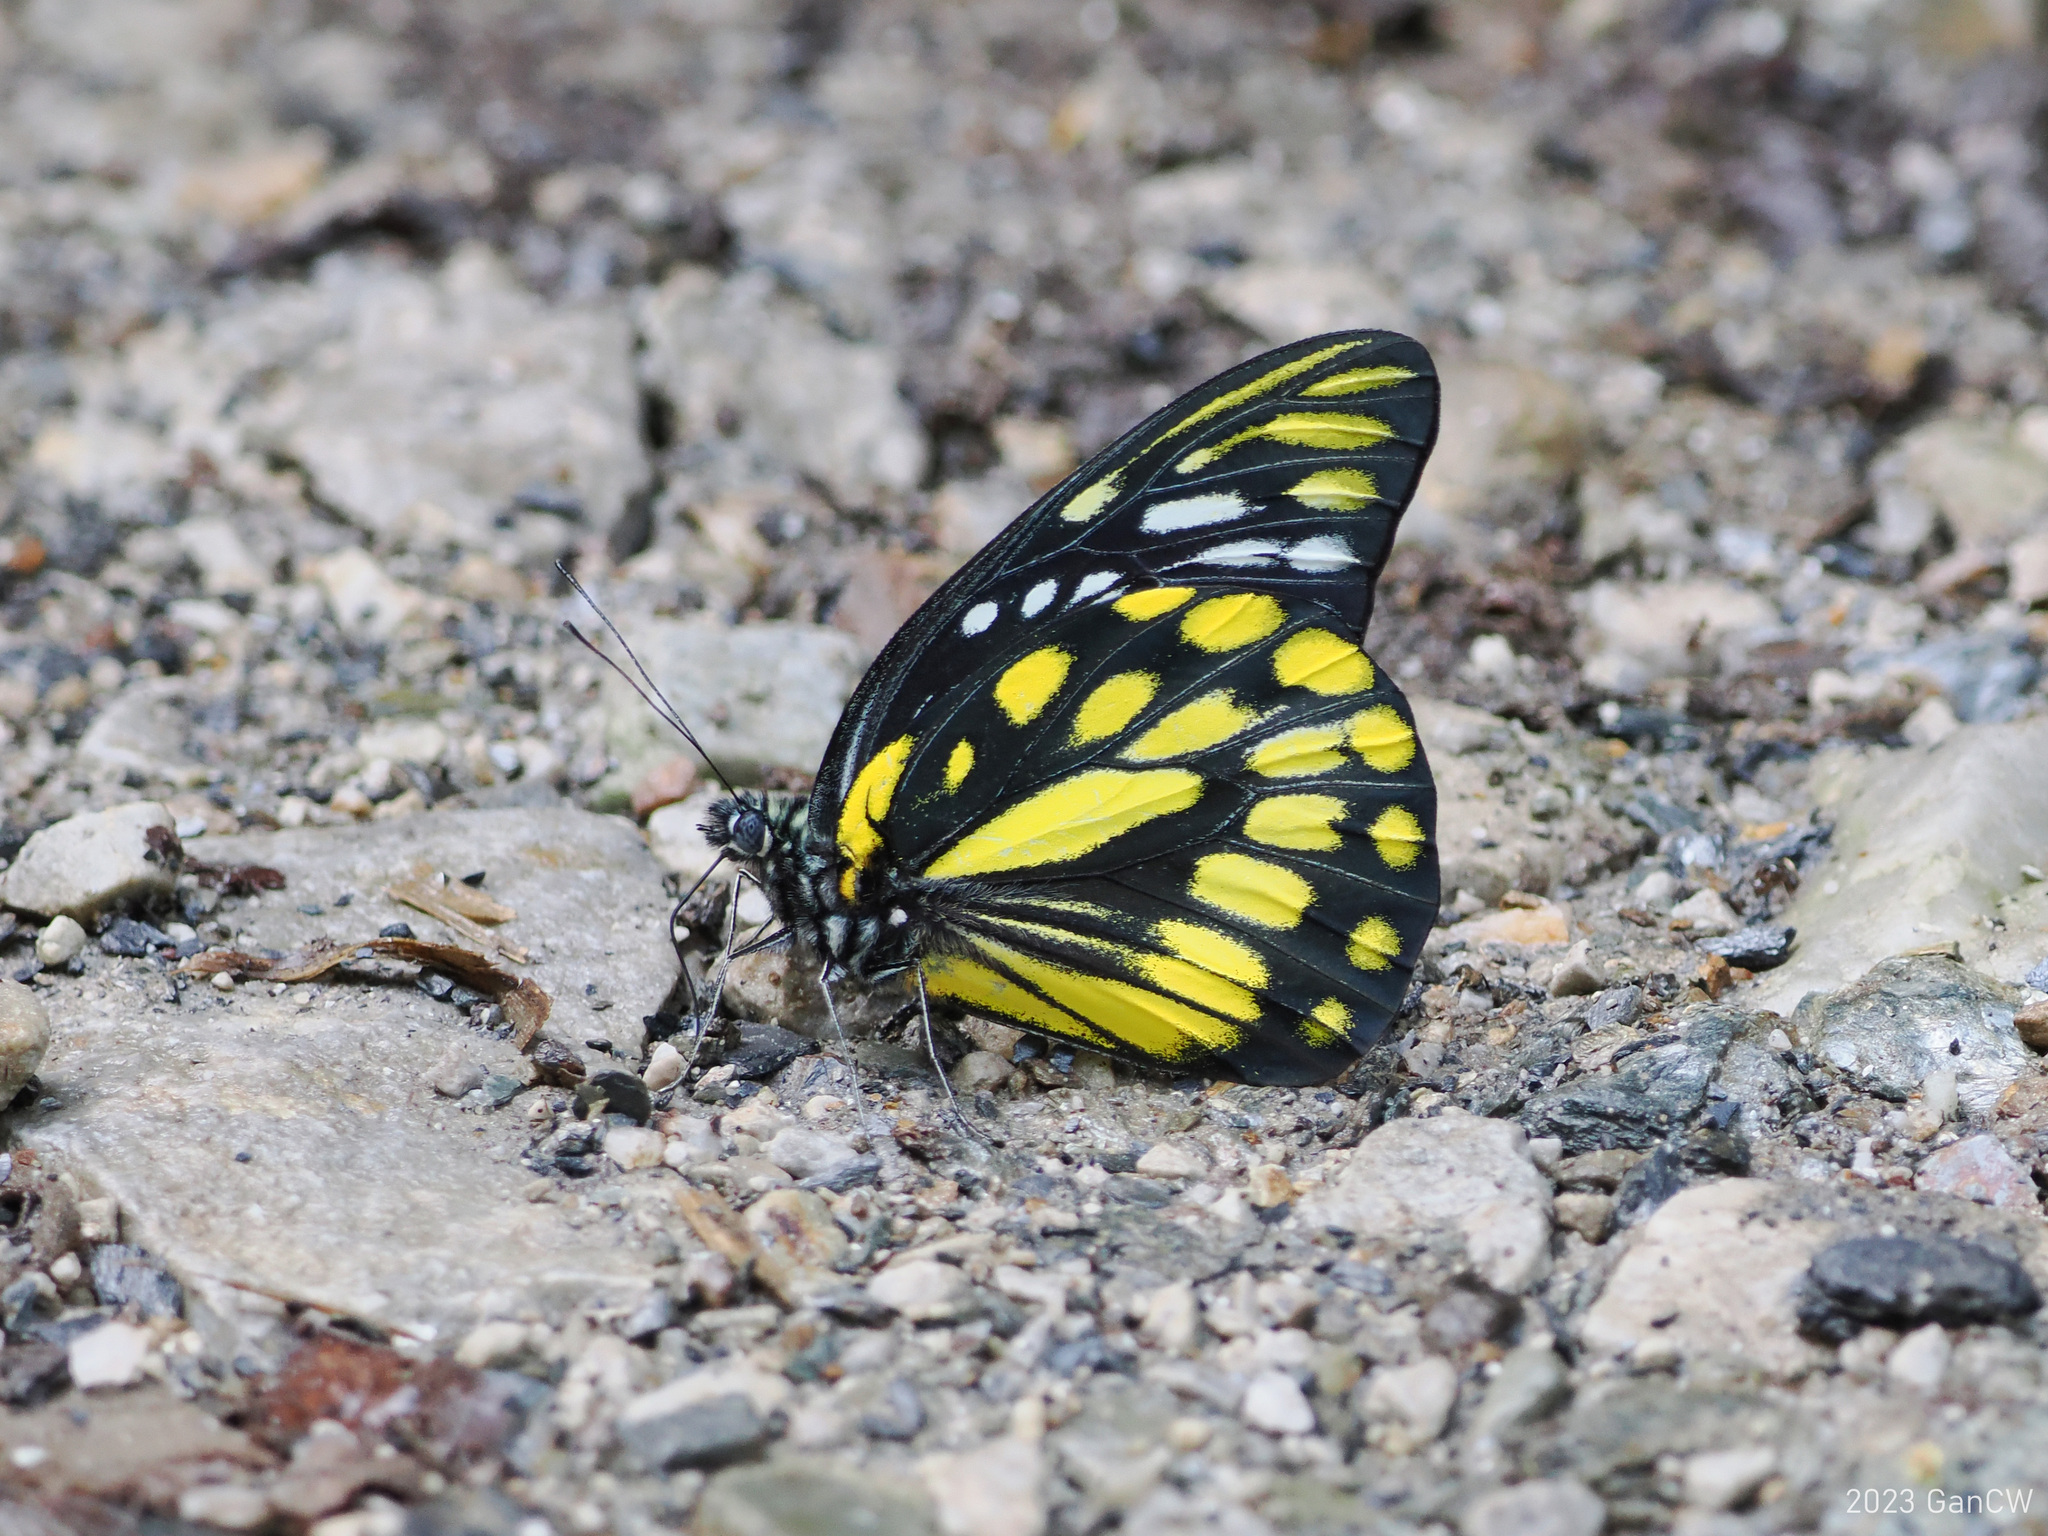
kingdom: Animalia
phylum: Arthropoda
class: Insecta
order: Lepidoptera
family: Pieridae
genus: Prioneris
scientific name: Prioneris thestylis
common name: Spotted sawtooth
